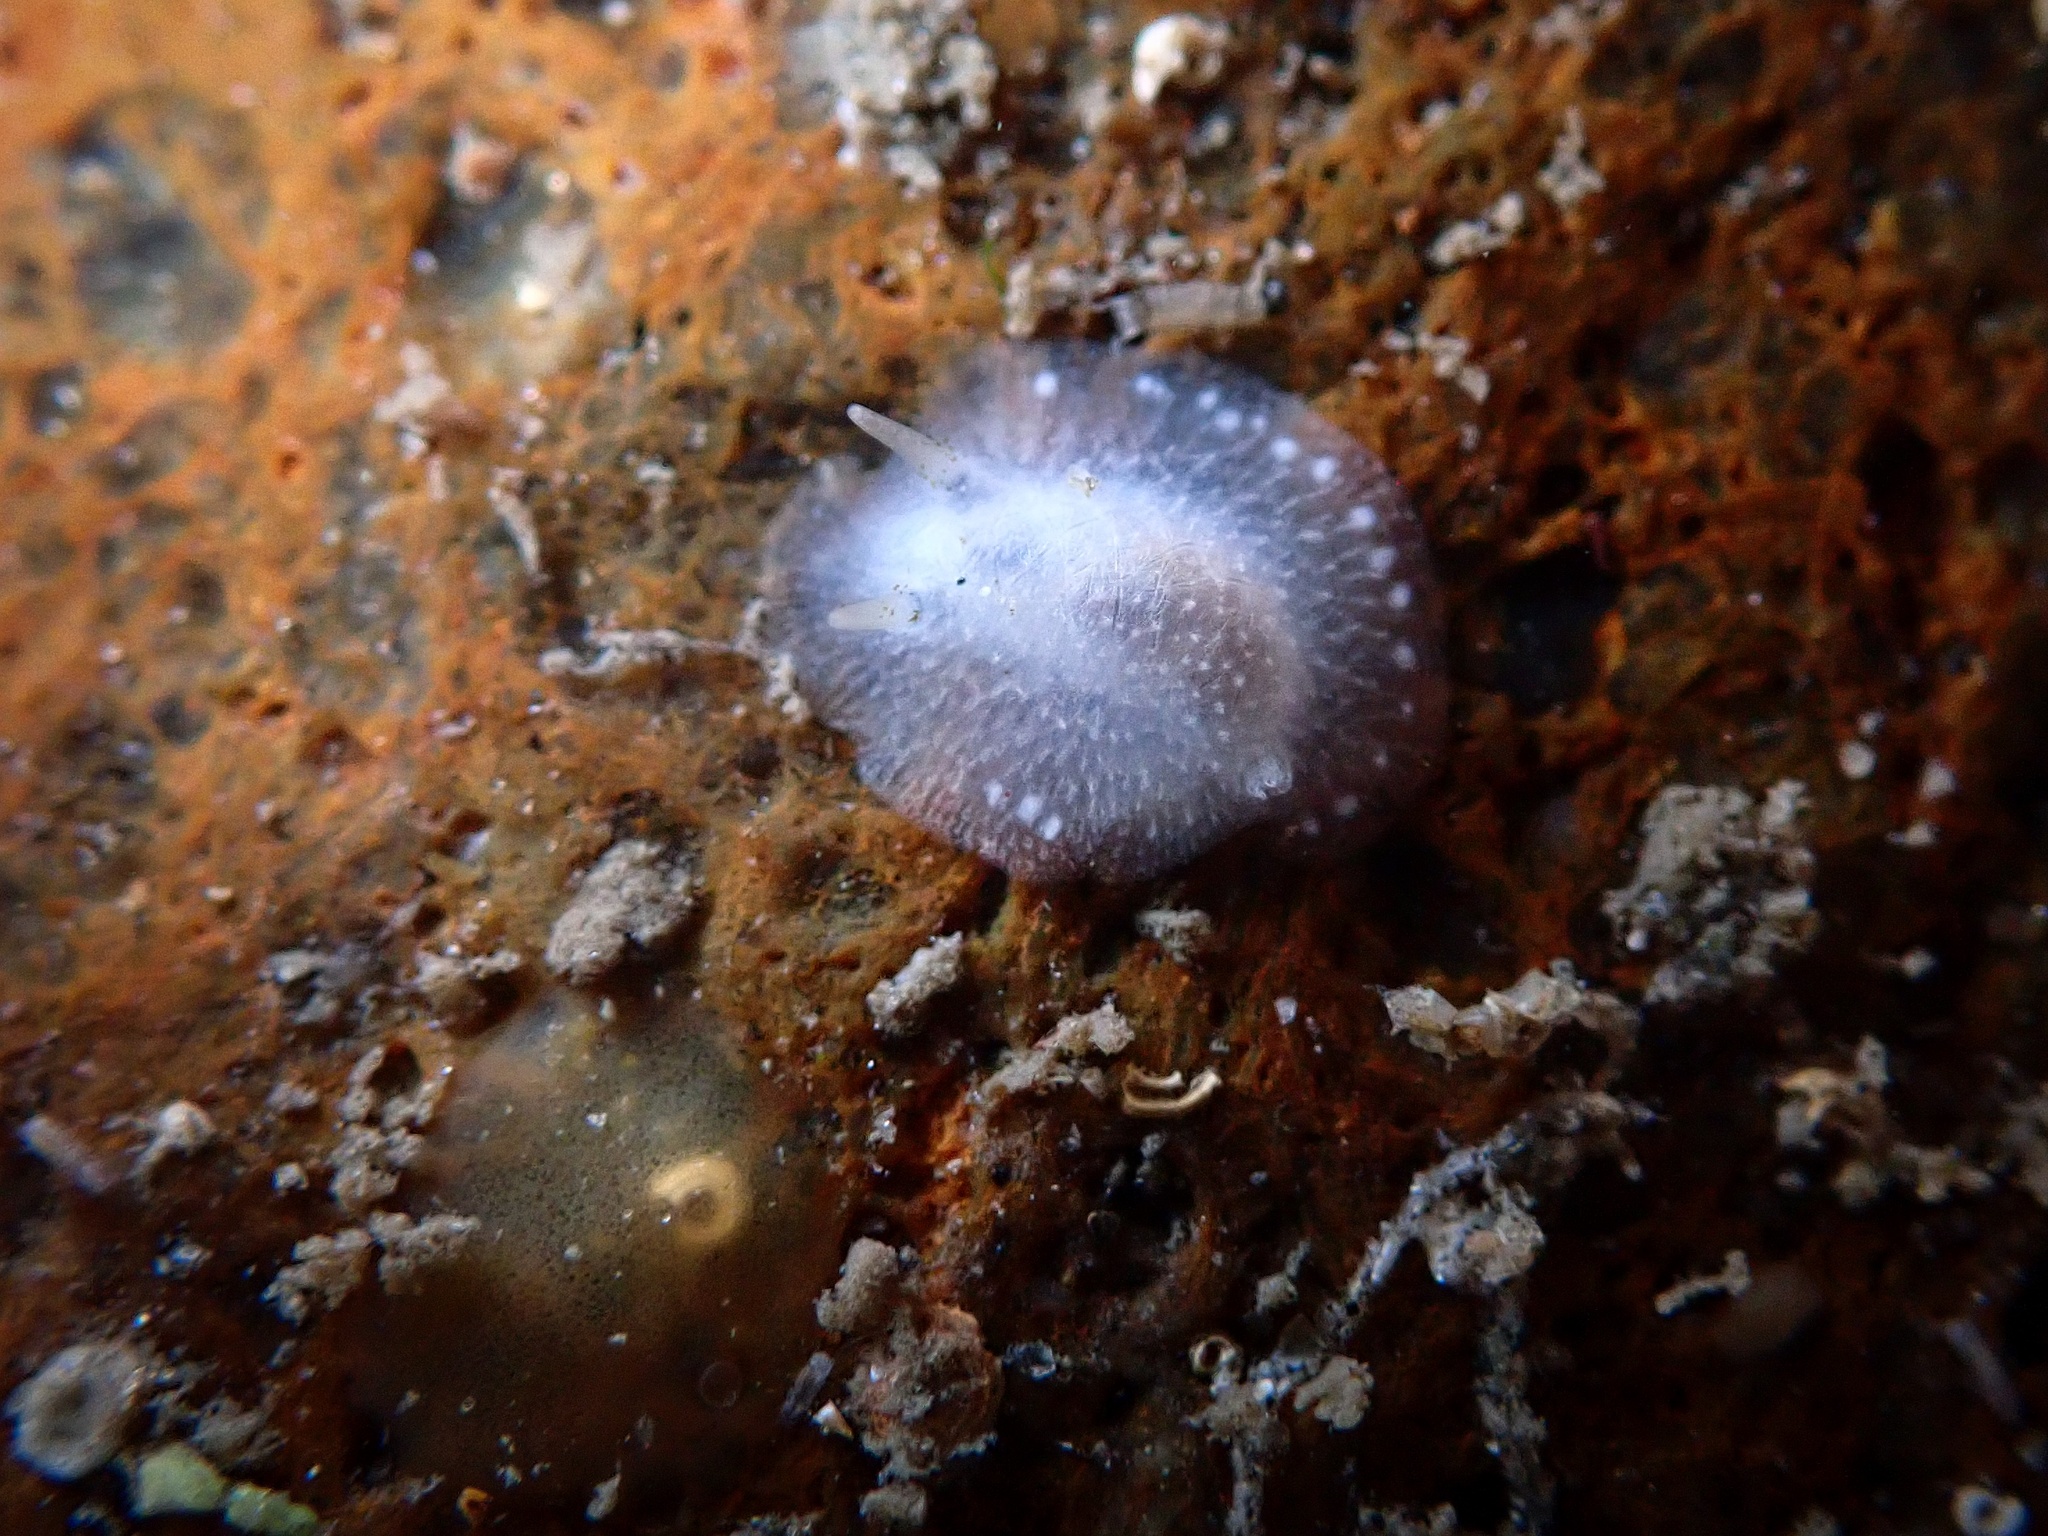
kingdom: Animalia
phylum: Mollusca
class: Gastropoda
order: Nudibranchia
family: Dorididae
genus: Conualevia
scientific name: Conualevia alba
